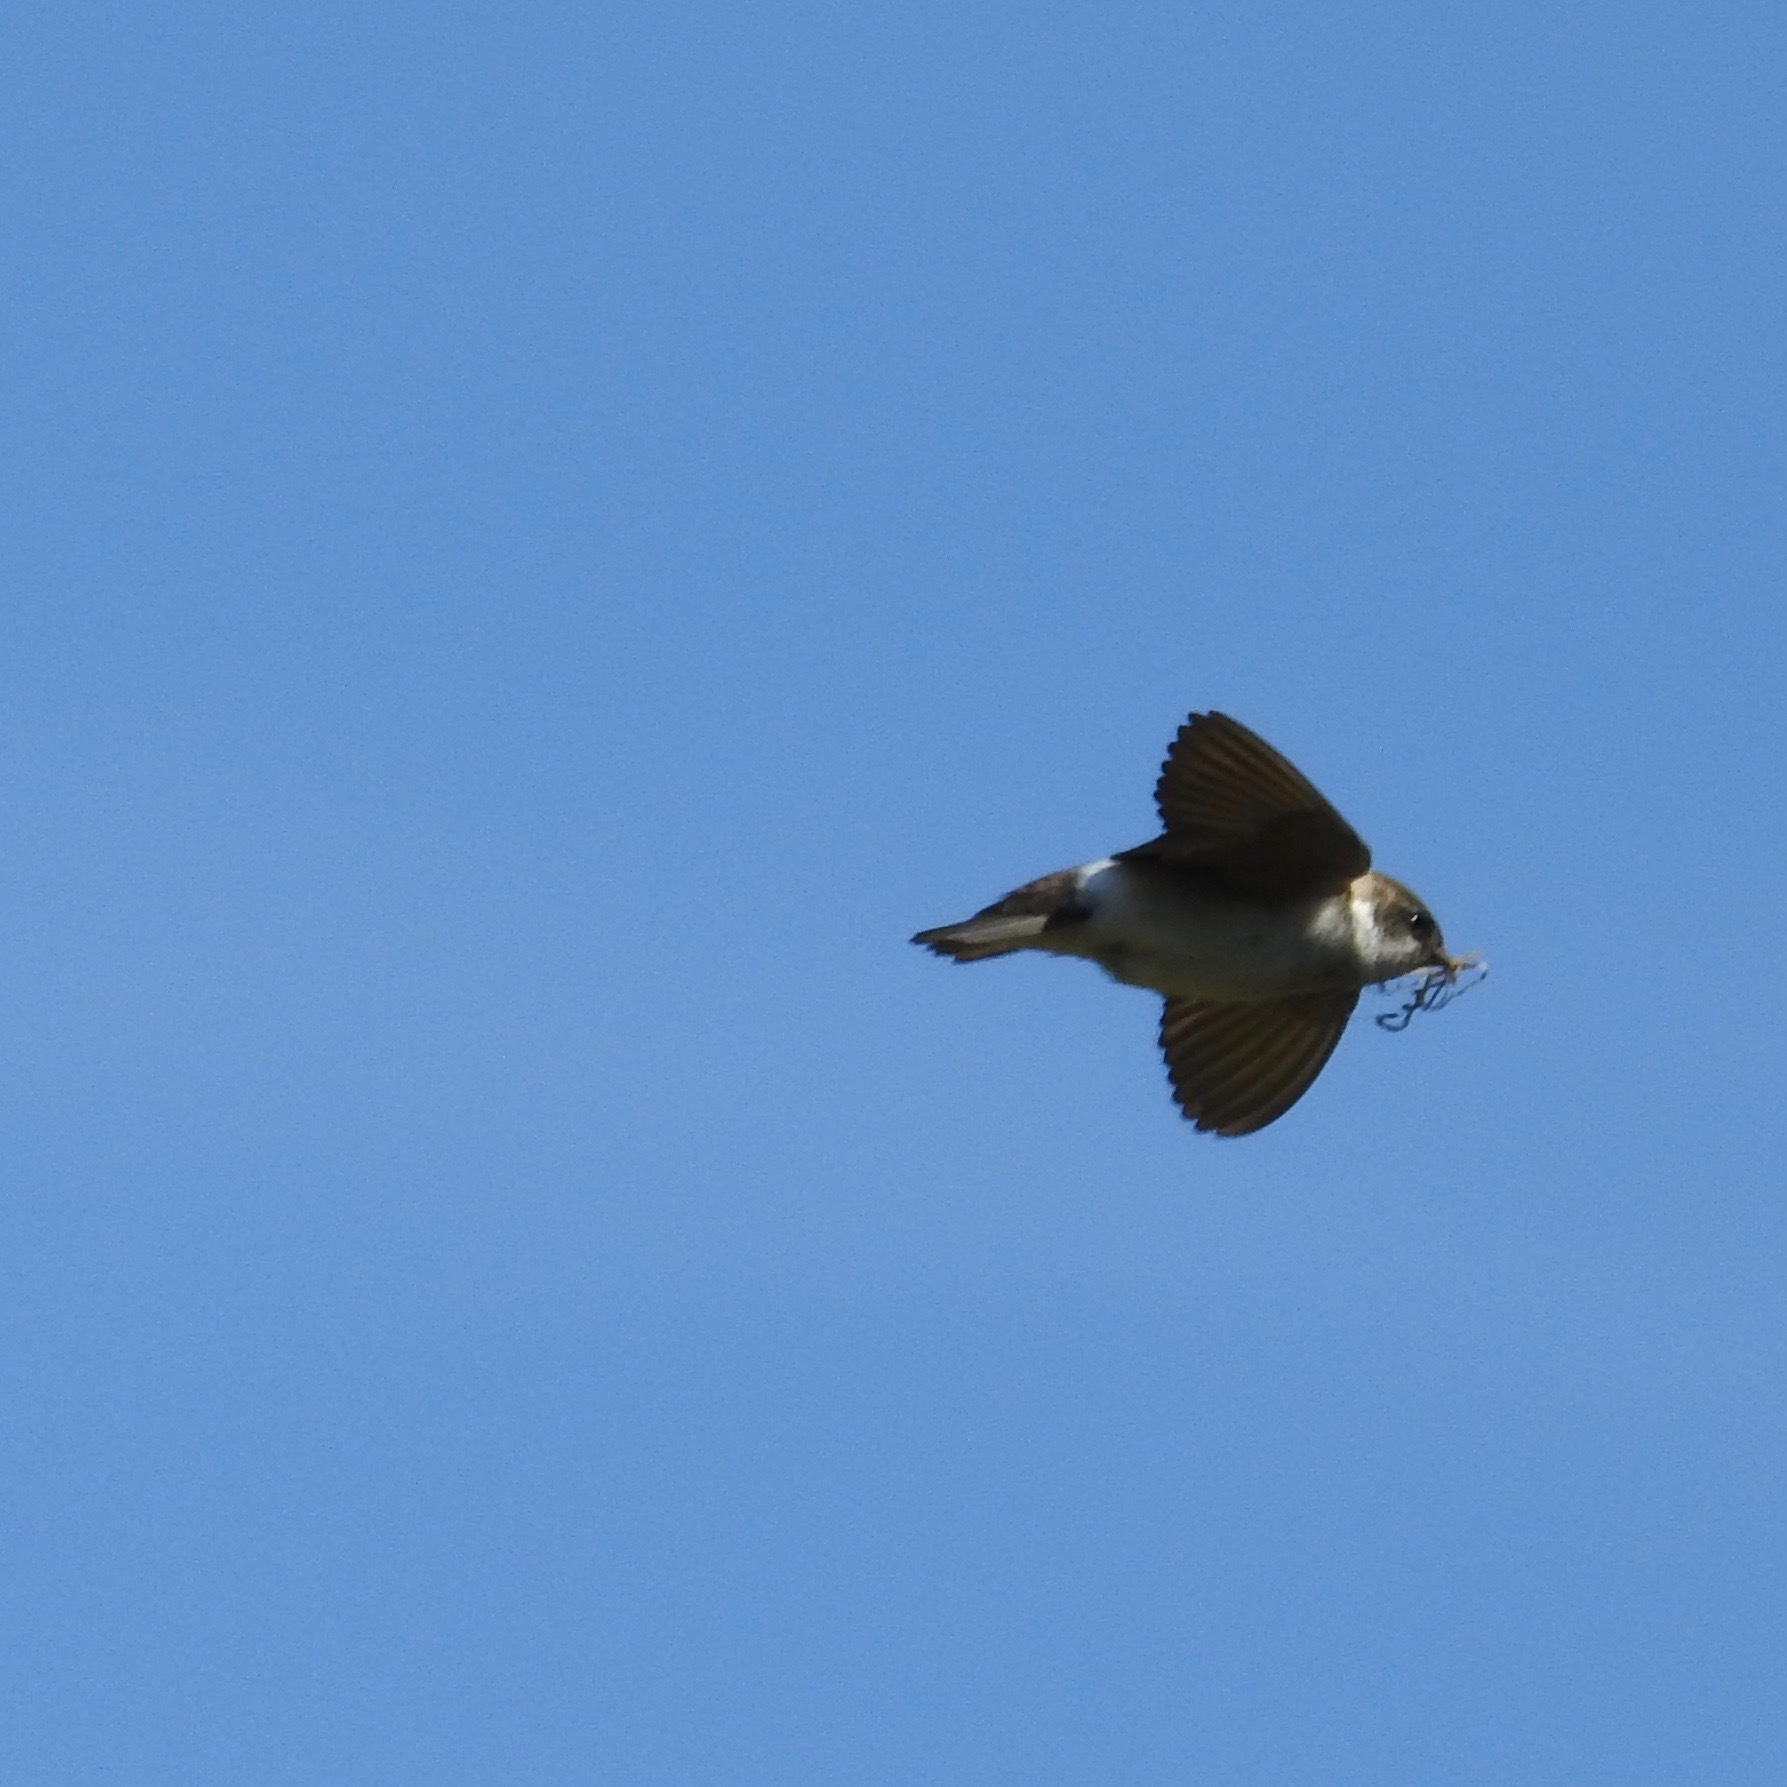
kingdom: Animalia
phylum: Chordata
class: Aves
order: Passeriformes
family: Hirundinidae
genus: Tachycineta
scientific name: Tachycineta thalassina
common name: Violet-green swallow
